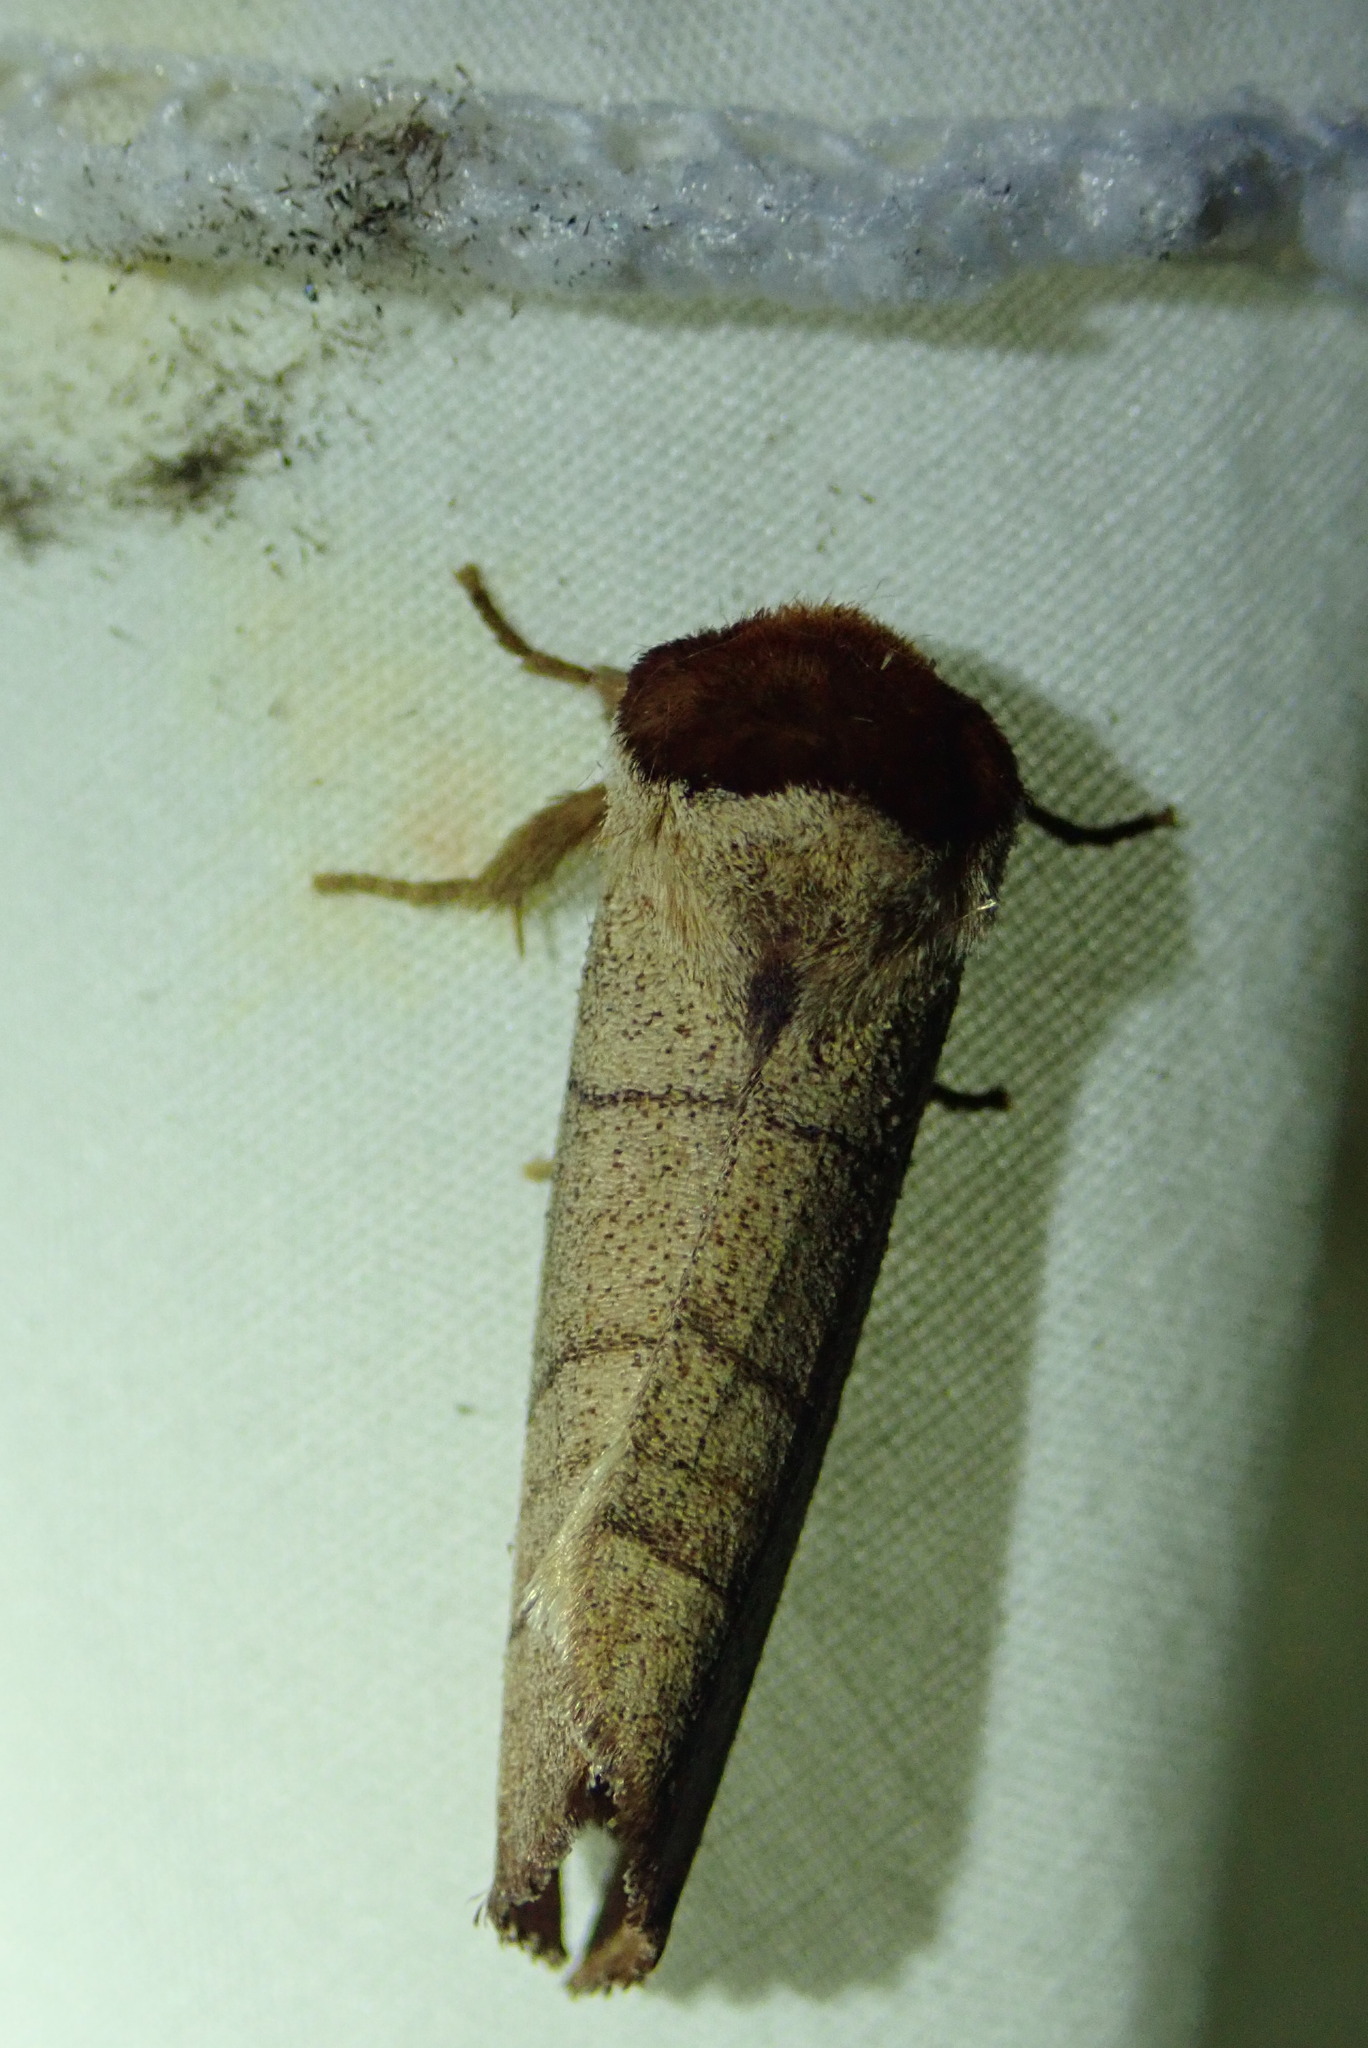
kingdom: Animalia
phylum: Arthropoda
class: Insecta
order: Lepidoptera
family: Notodontidae
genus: Datana
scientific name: Datana ministra
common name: Yellow-necked caterpillar moth
